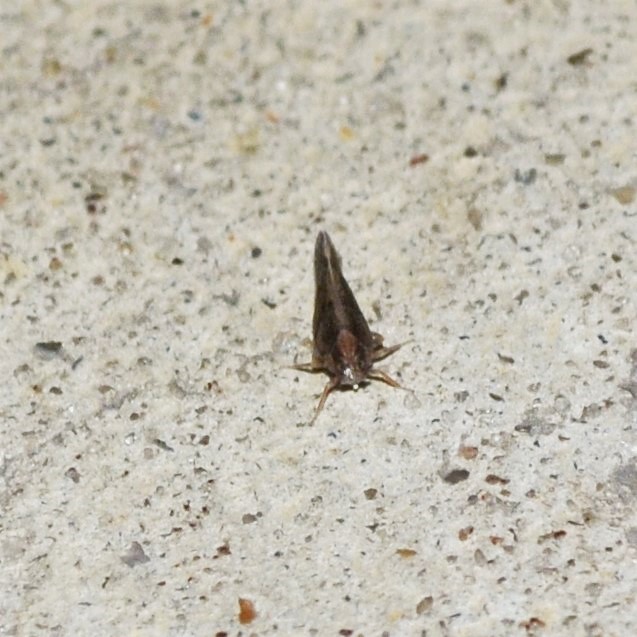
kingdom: Animalia
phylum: Arthropoda
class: Insecta
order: Hemiptera
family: Cixiidae
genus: Monorachis
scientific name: Monorachis sordulentus
